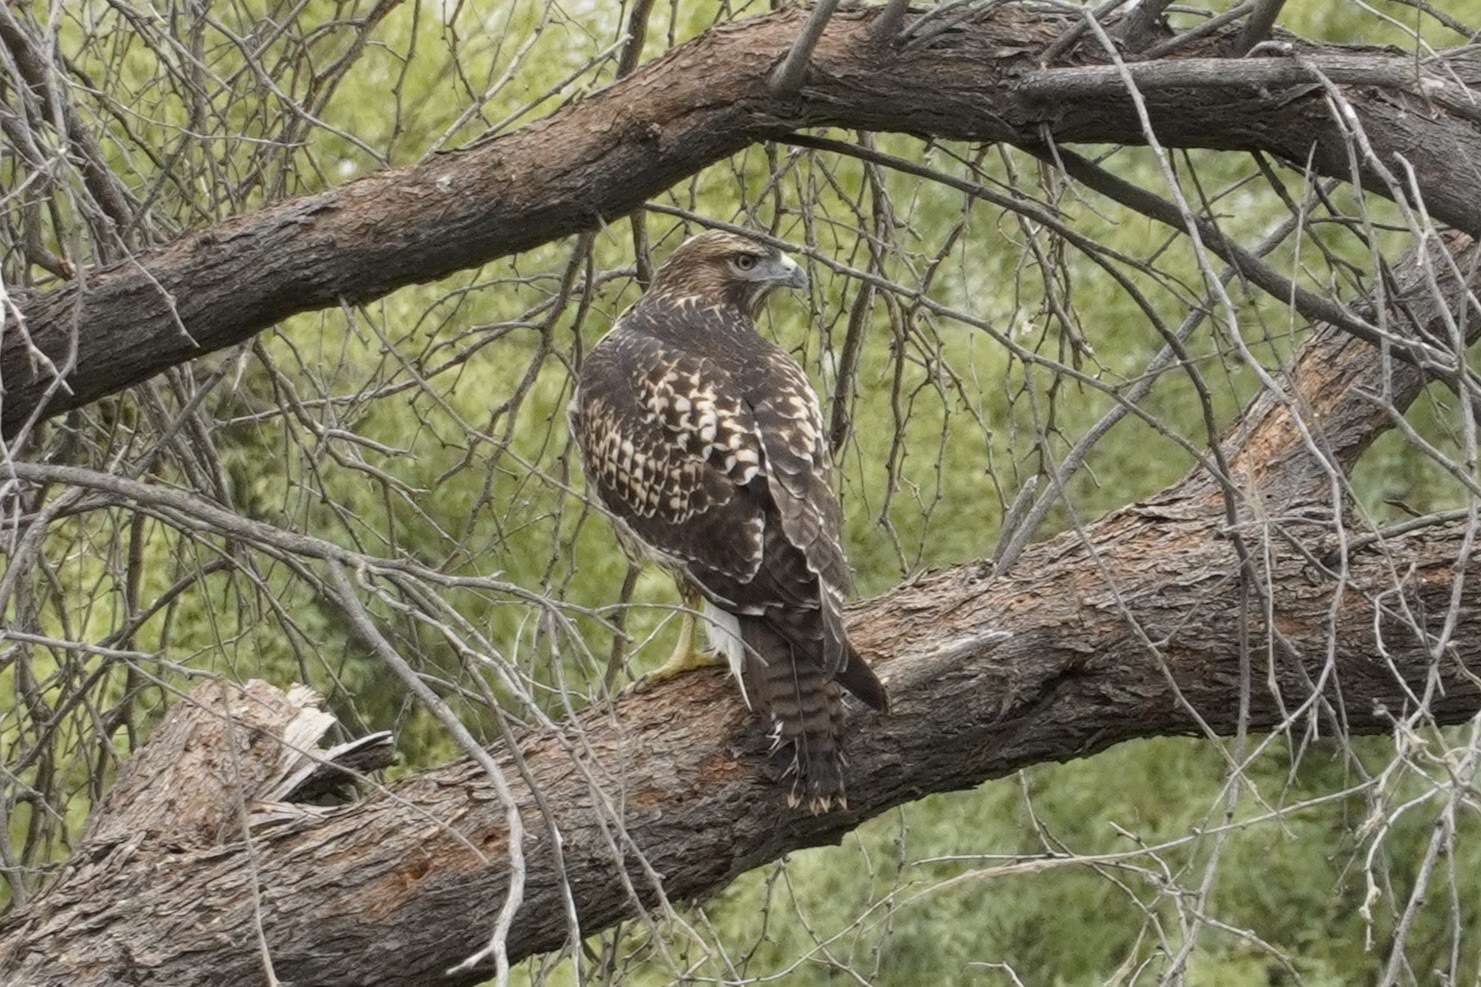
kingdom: Animalia
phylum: Chordata
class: Aves
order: Accipitriformes
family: Accipitridae
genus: Buteo
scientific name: Buteo jamaicensis
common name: Red-tailed hawk
